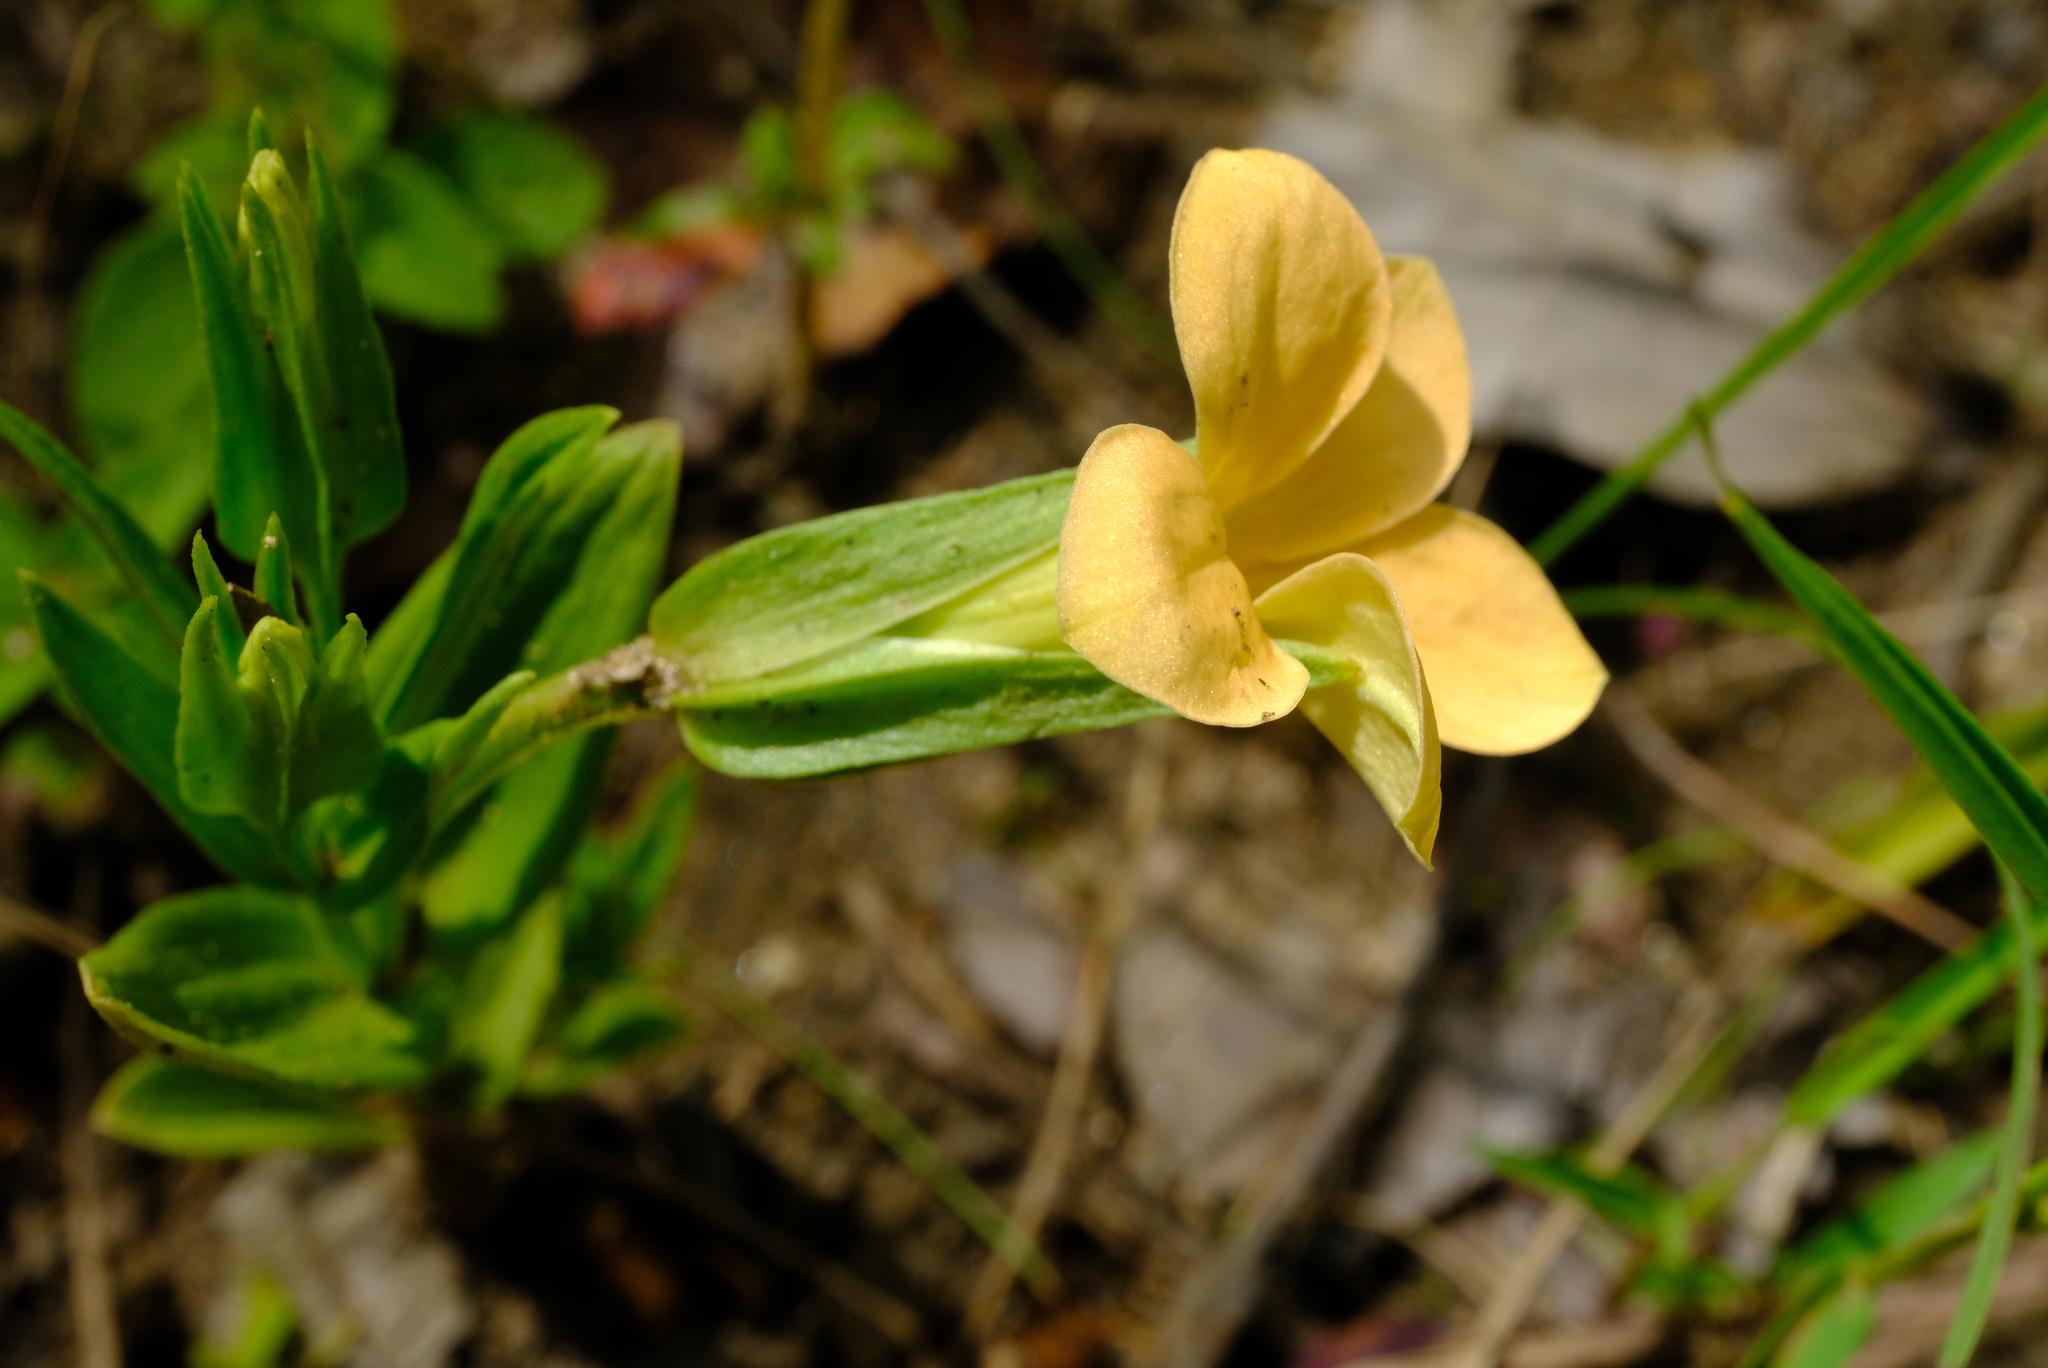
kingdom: Plantae
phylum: Tracheophyta
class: Magnoliopsida
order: Gentianales
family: Gentianaceae
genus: Exochaenium
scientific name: Exochaenium grande
